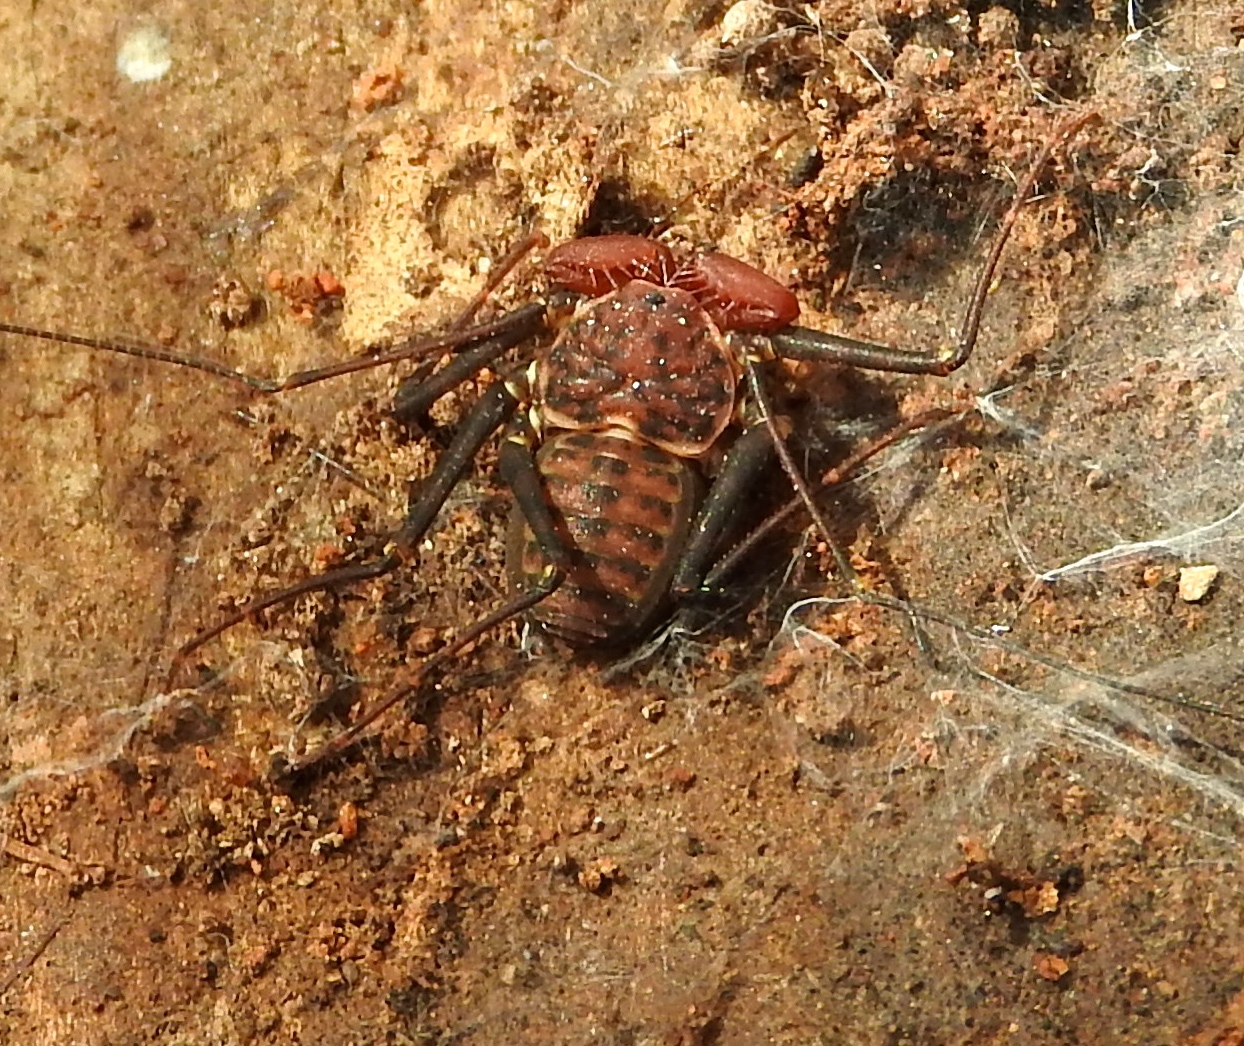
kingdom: Animalia
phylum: Arthropoda
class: Arachnida
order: Amblypygi
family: Phrynidae
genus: Phrynus
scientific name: Phrynus operculatus
